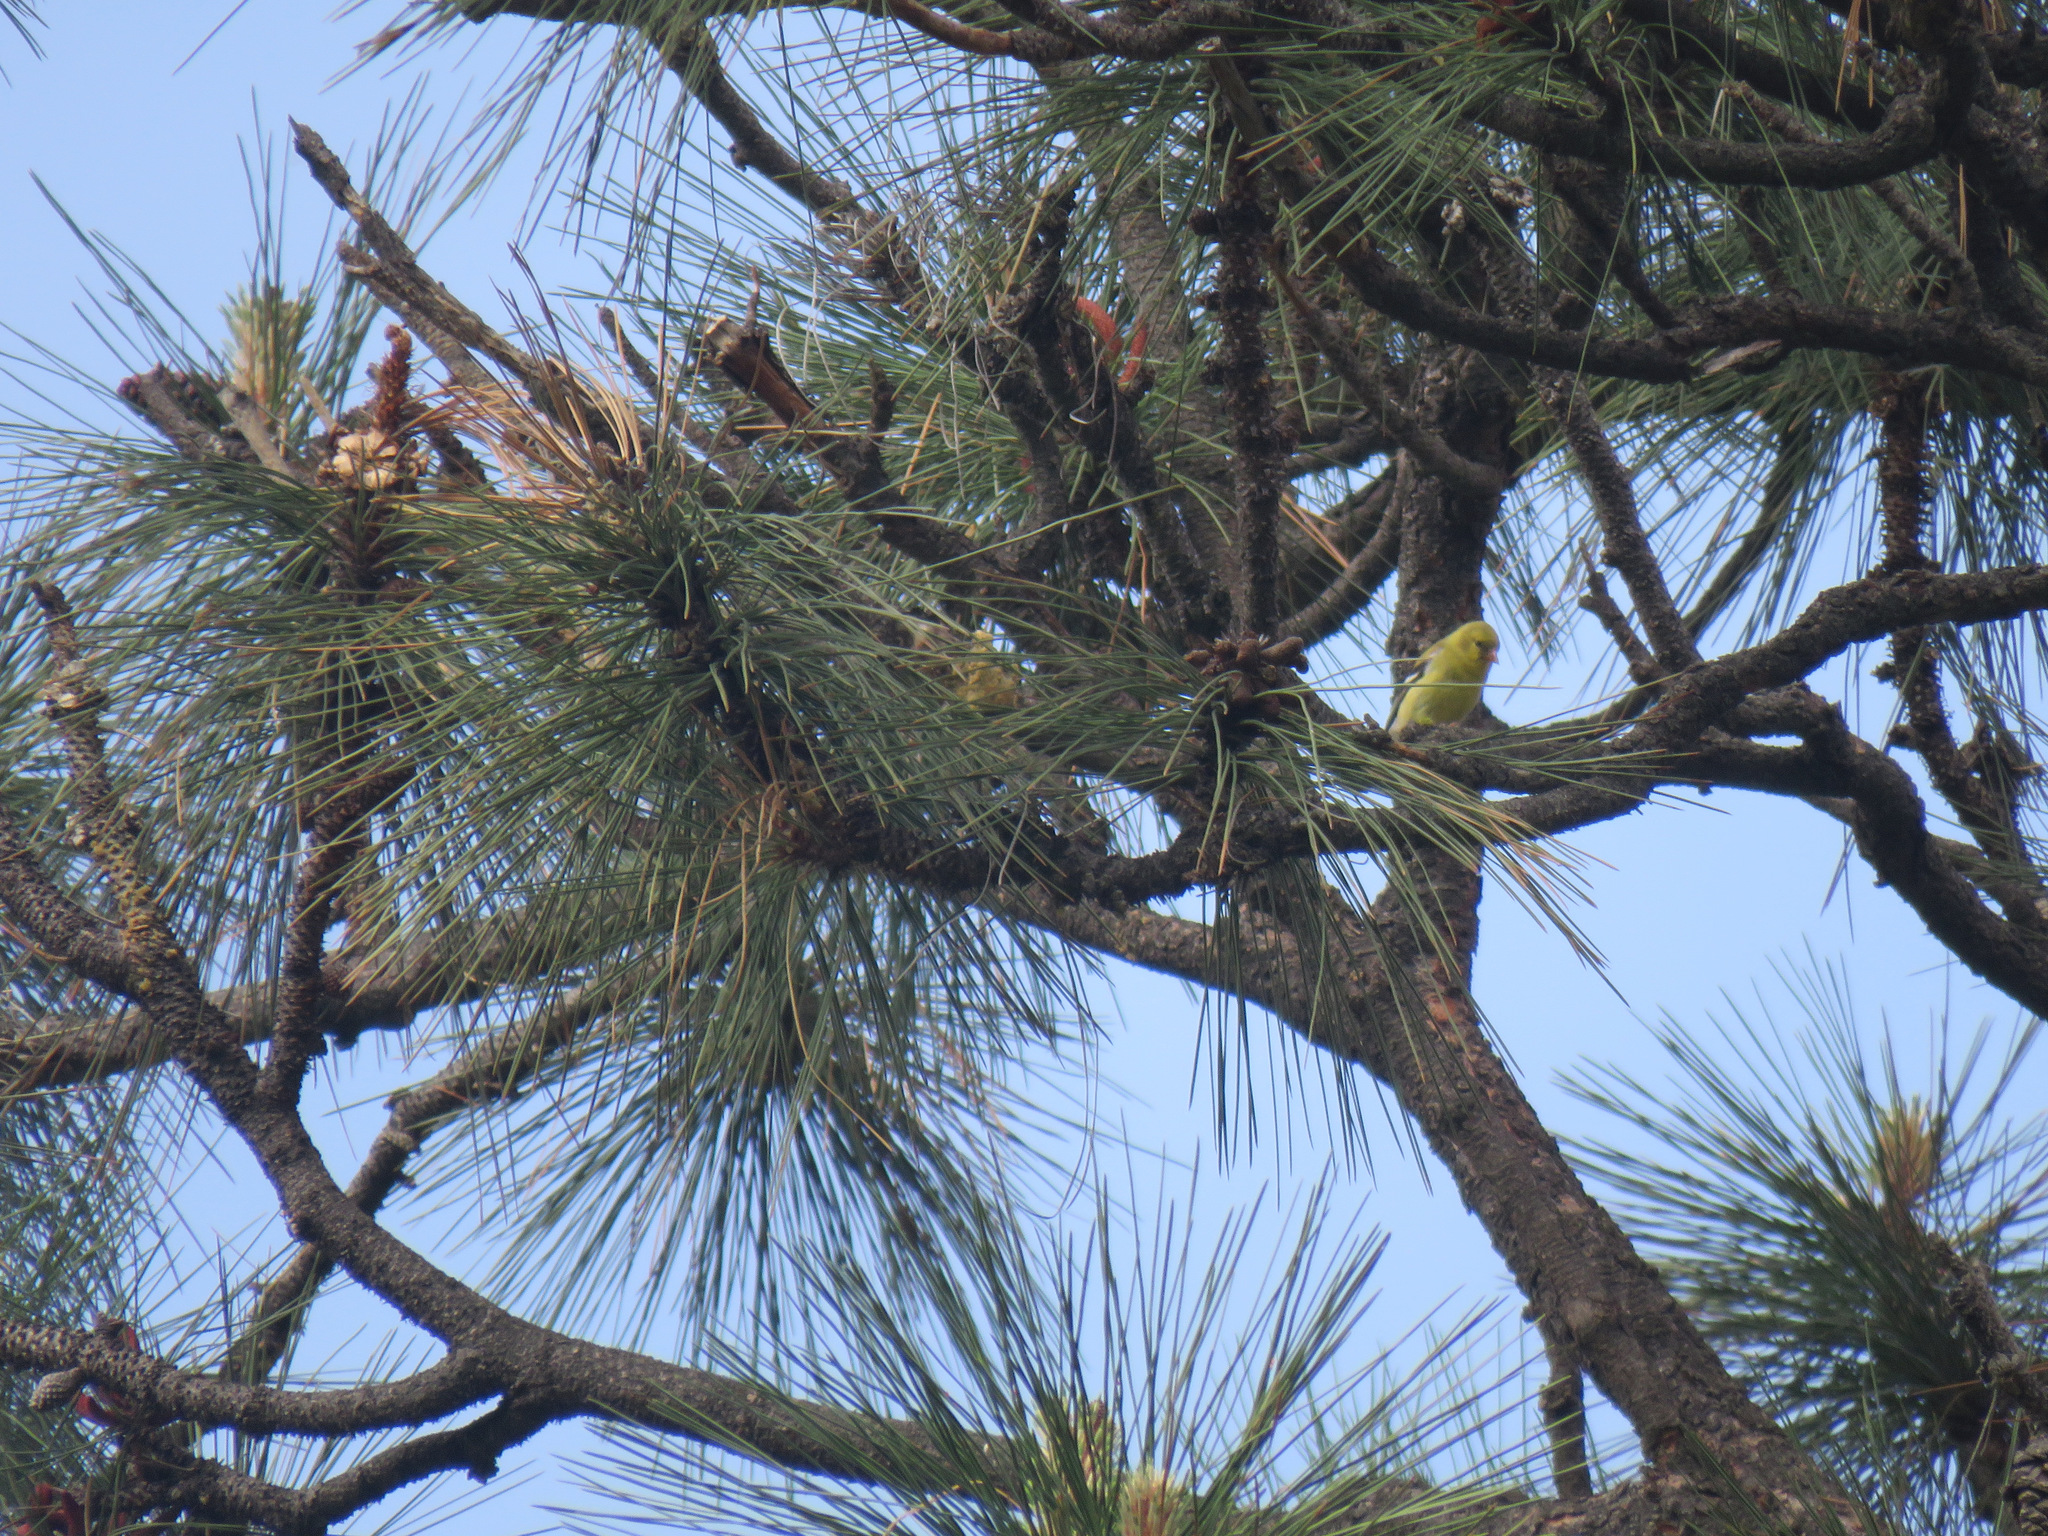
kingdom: Animalia
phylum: Chordata
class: Aves
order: Passeriformes
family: Fringillidae
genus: Spinus
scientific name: Spinus tristis
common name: American goldfinch
